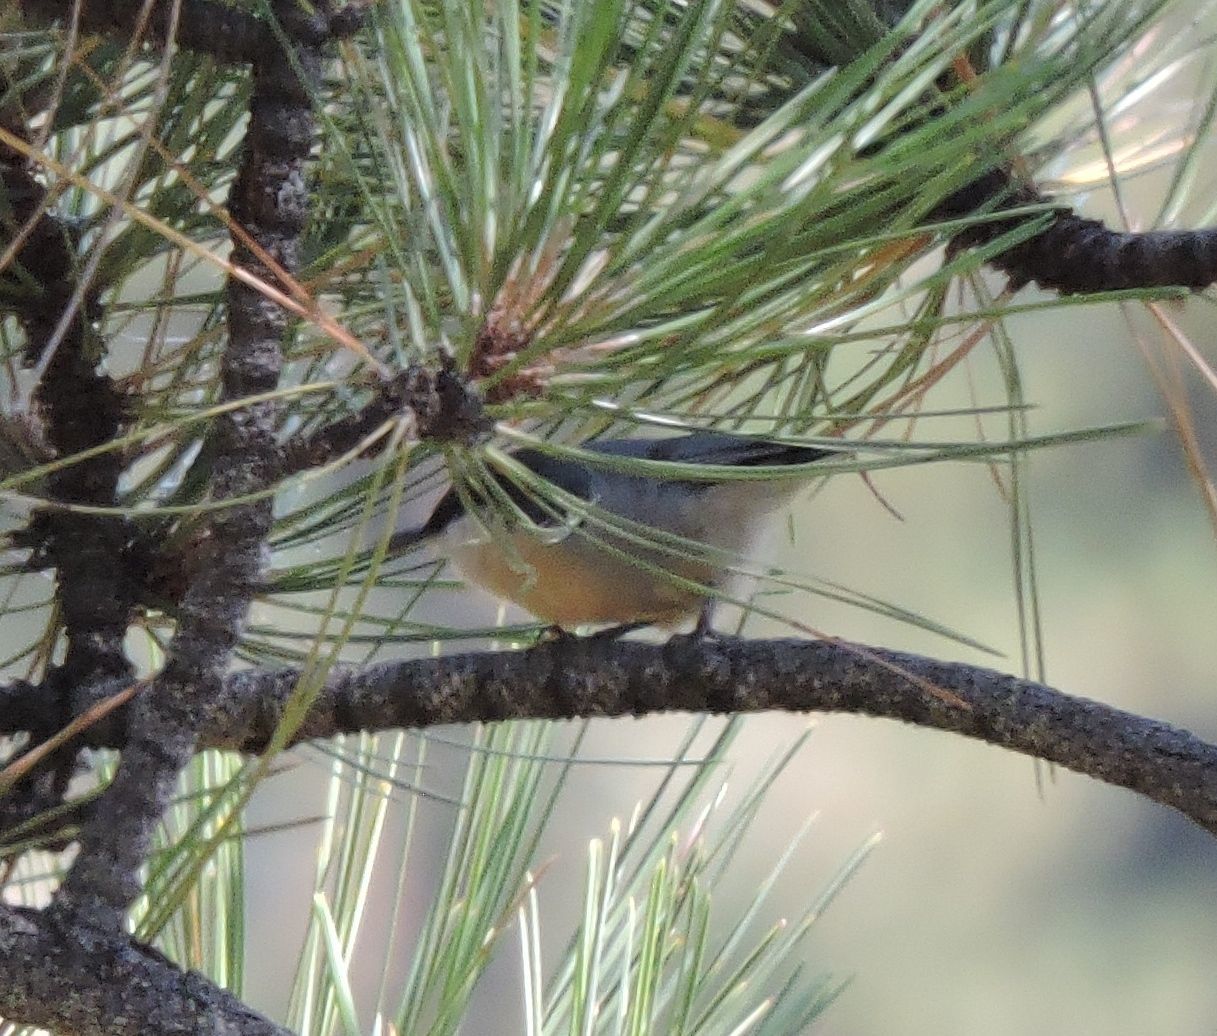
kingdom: Animalia
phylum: Chordata
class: Aves
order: Passeriformes
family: Sittidae
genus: Sitta
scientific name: Sitta pygmaea
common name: Pygmy nuthatch
